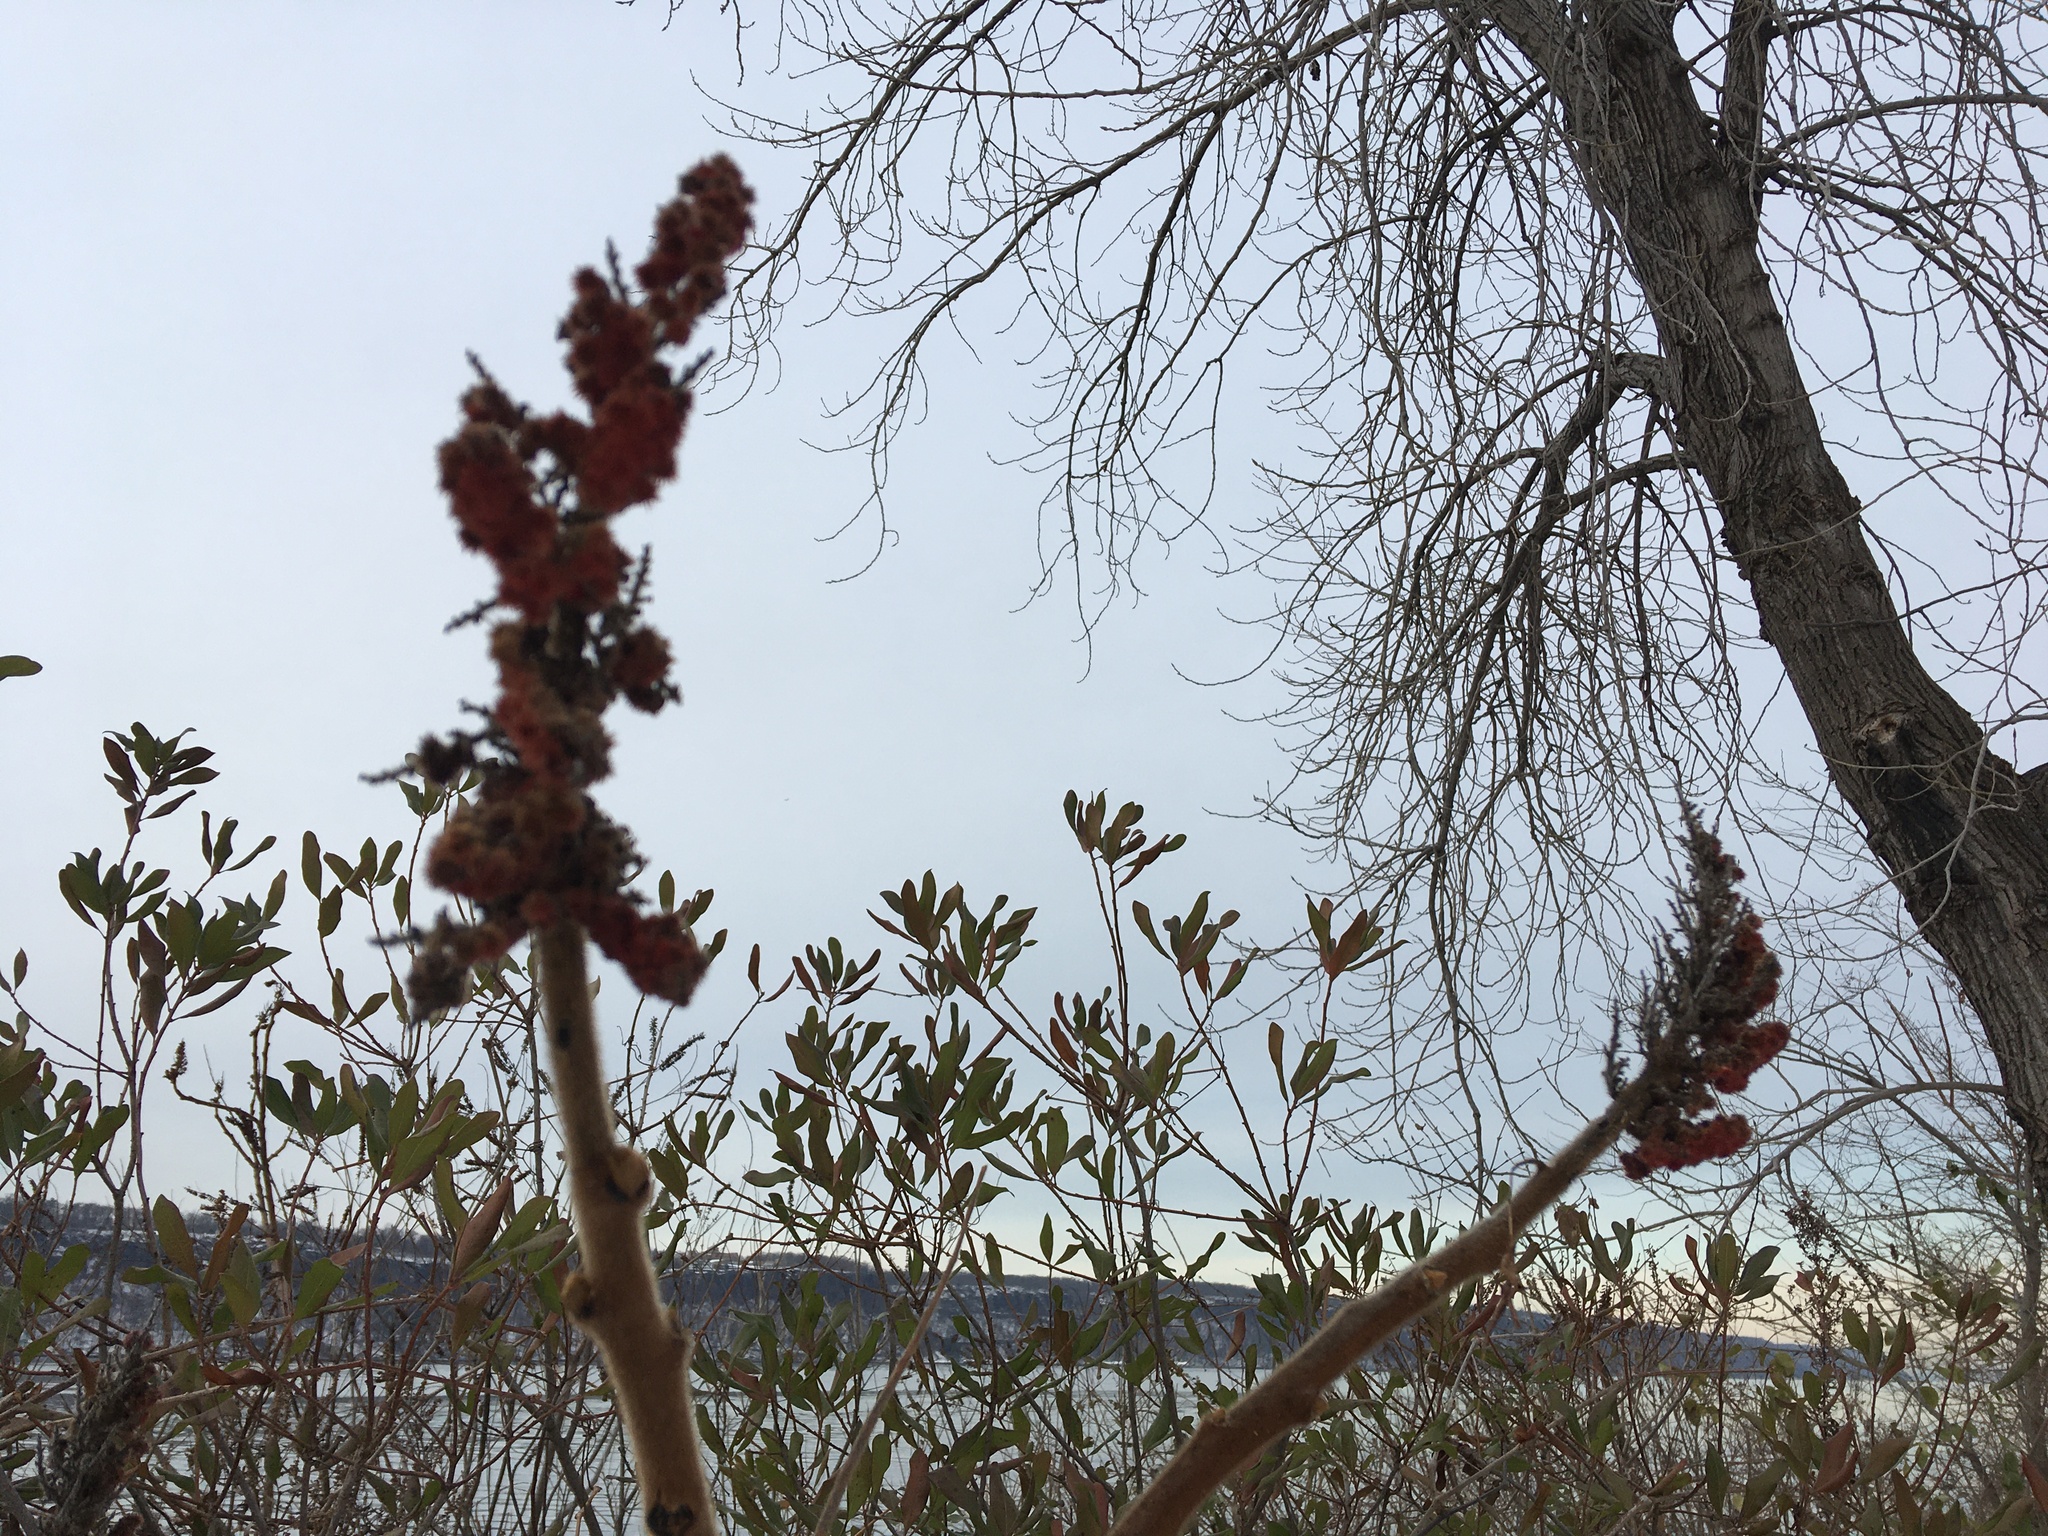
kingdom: Plantae
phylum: Tracheophyta
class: Magnoliopsida
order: Sapindales
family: Anacardiaceae
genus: Rhus
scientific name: Rhus typhina
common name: Staghorn sumac
